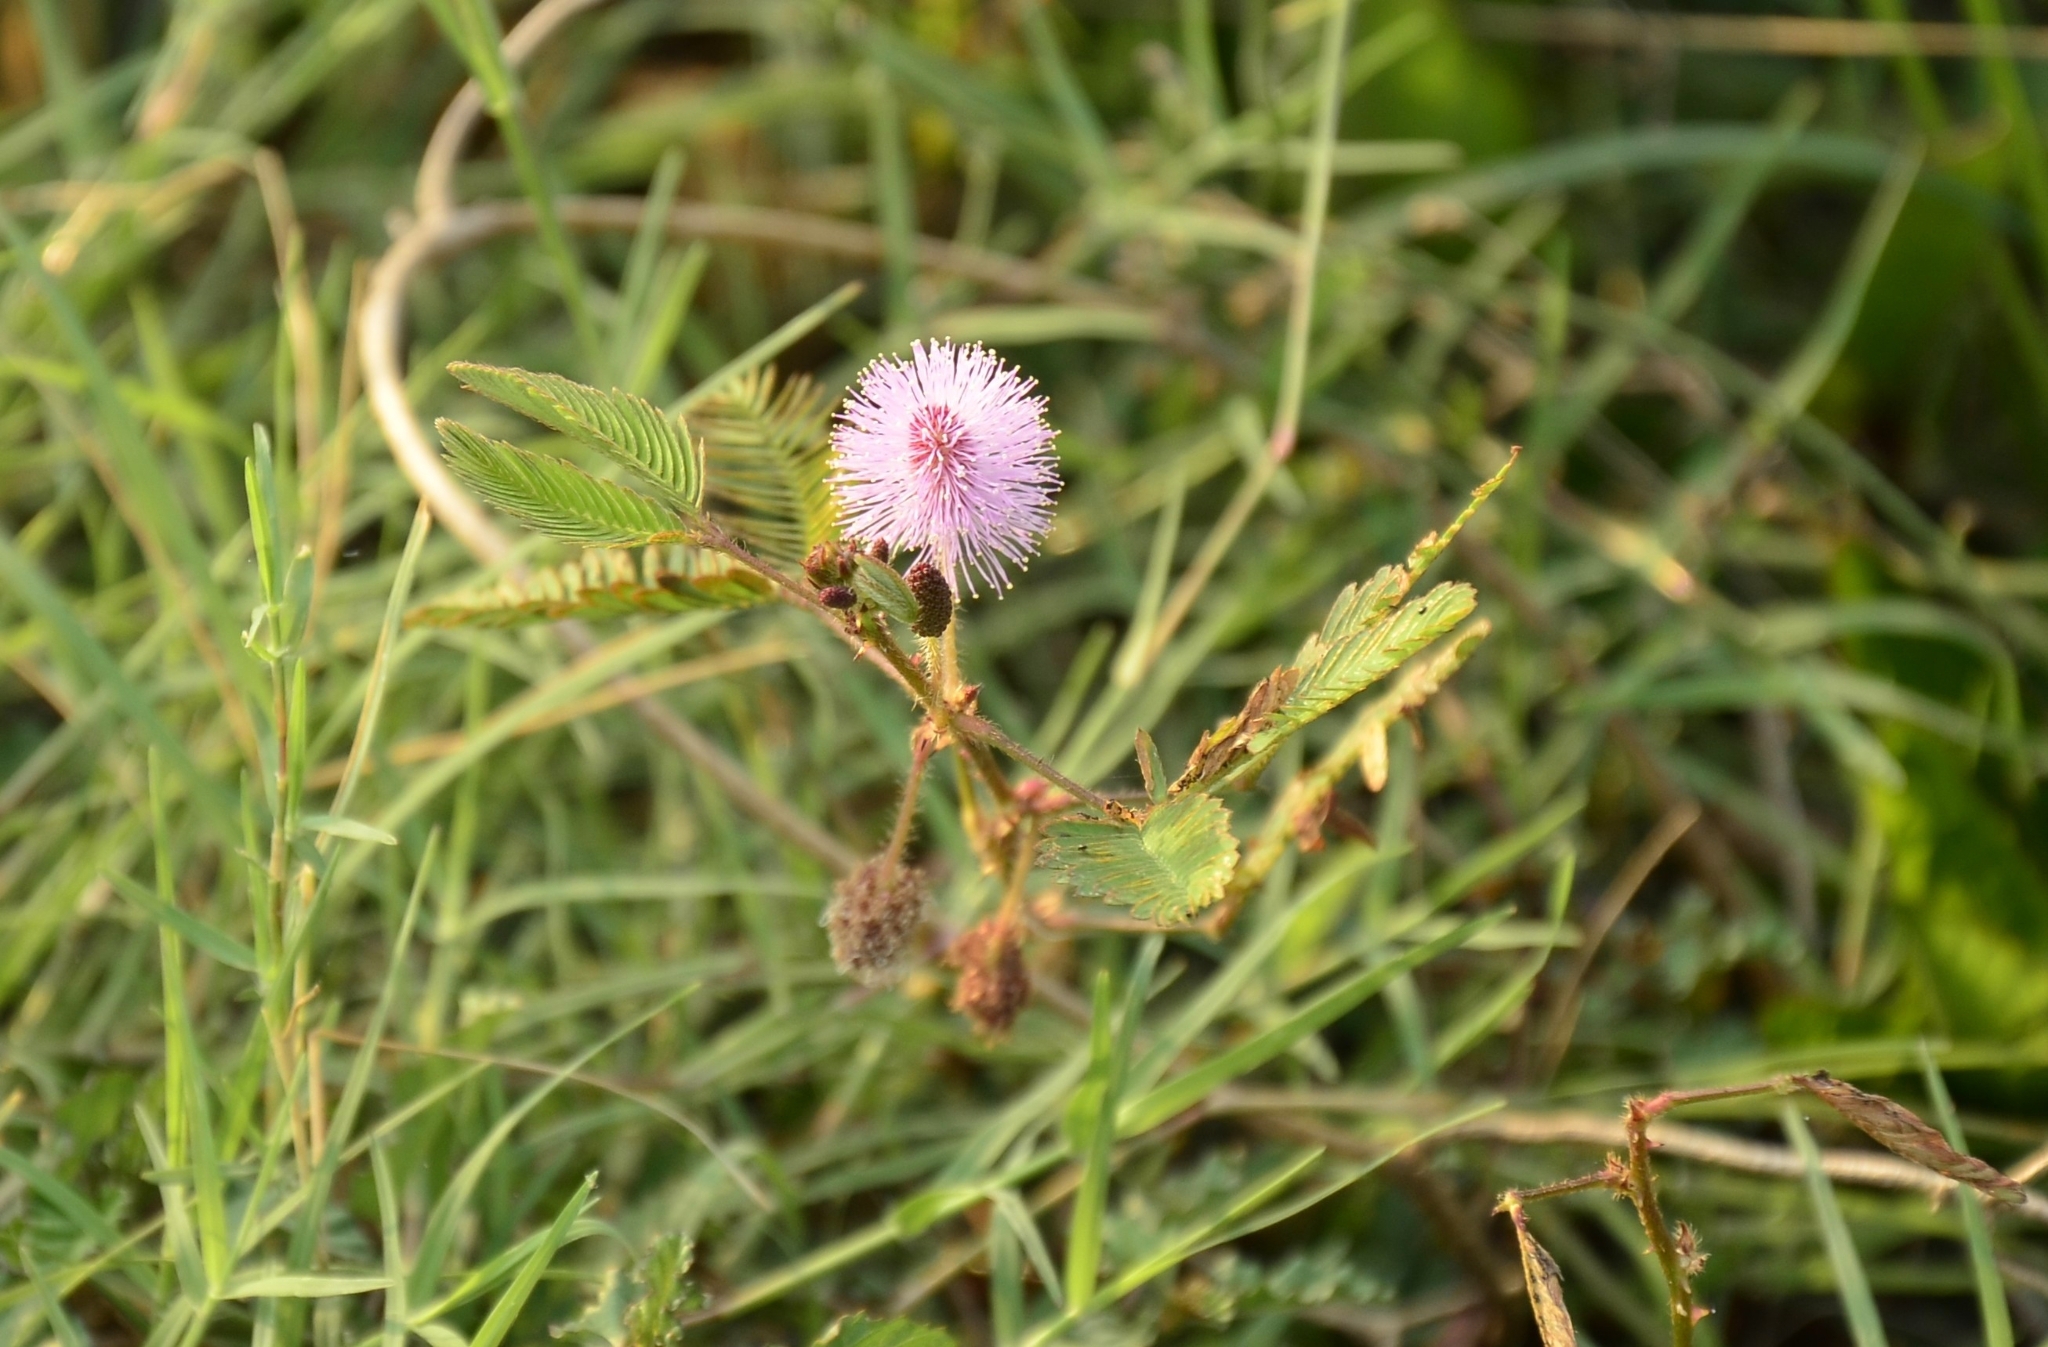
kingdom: Plantae
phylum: Tracheophyta
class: Magnoliopsida
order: Fabales
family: Fabaceae
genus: Mimosa
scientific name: Mimosa pudica
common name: Sensitive plant
